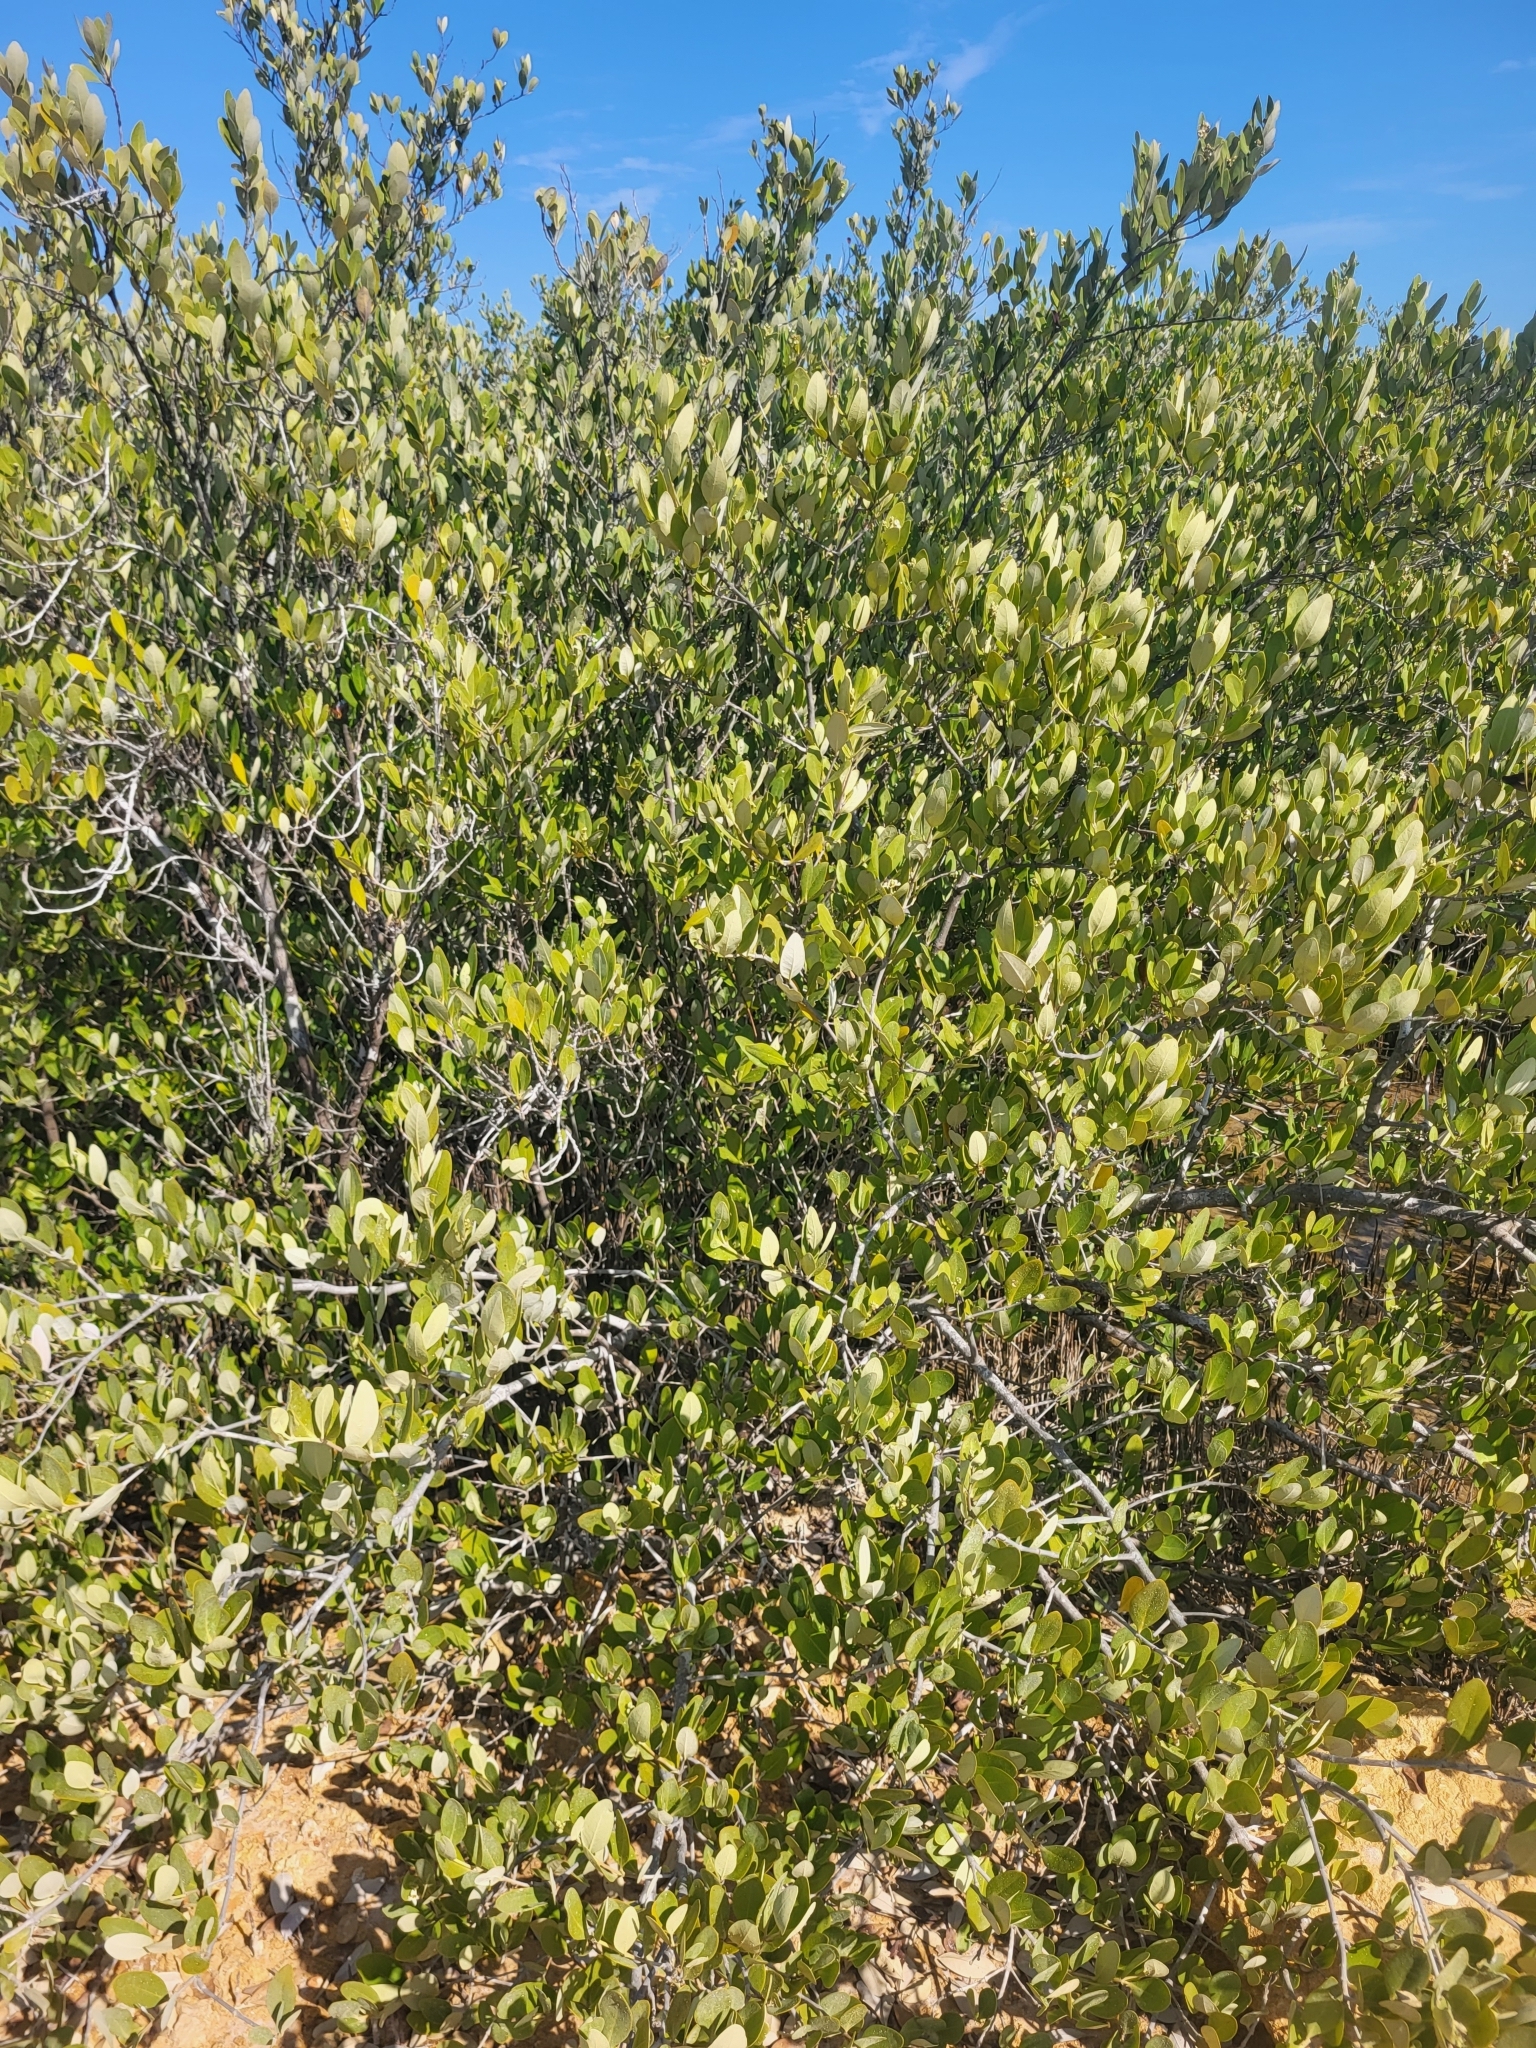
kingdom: Plantae
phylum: Tracheophyta
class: Magnoliopsida
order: Lamiales
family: Acanthaceae
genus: Avicennia
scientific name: Avicennia germinans
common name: Black mangrove
